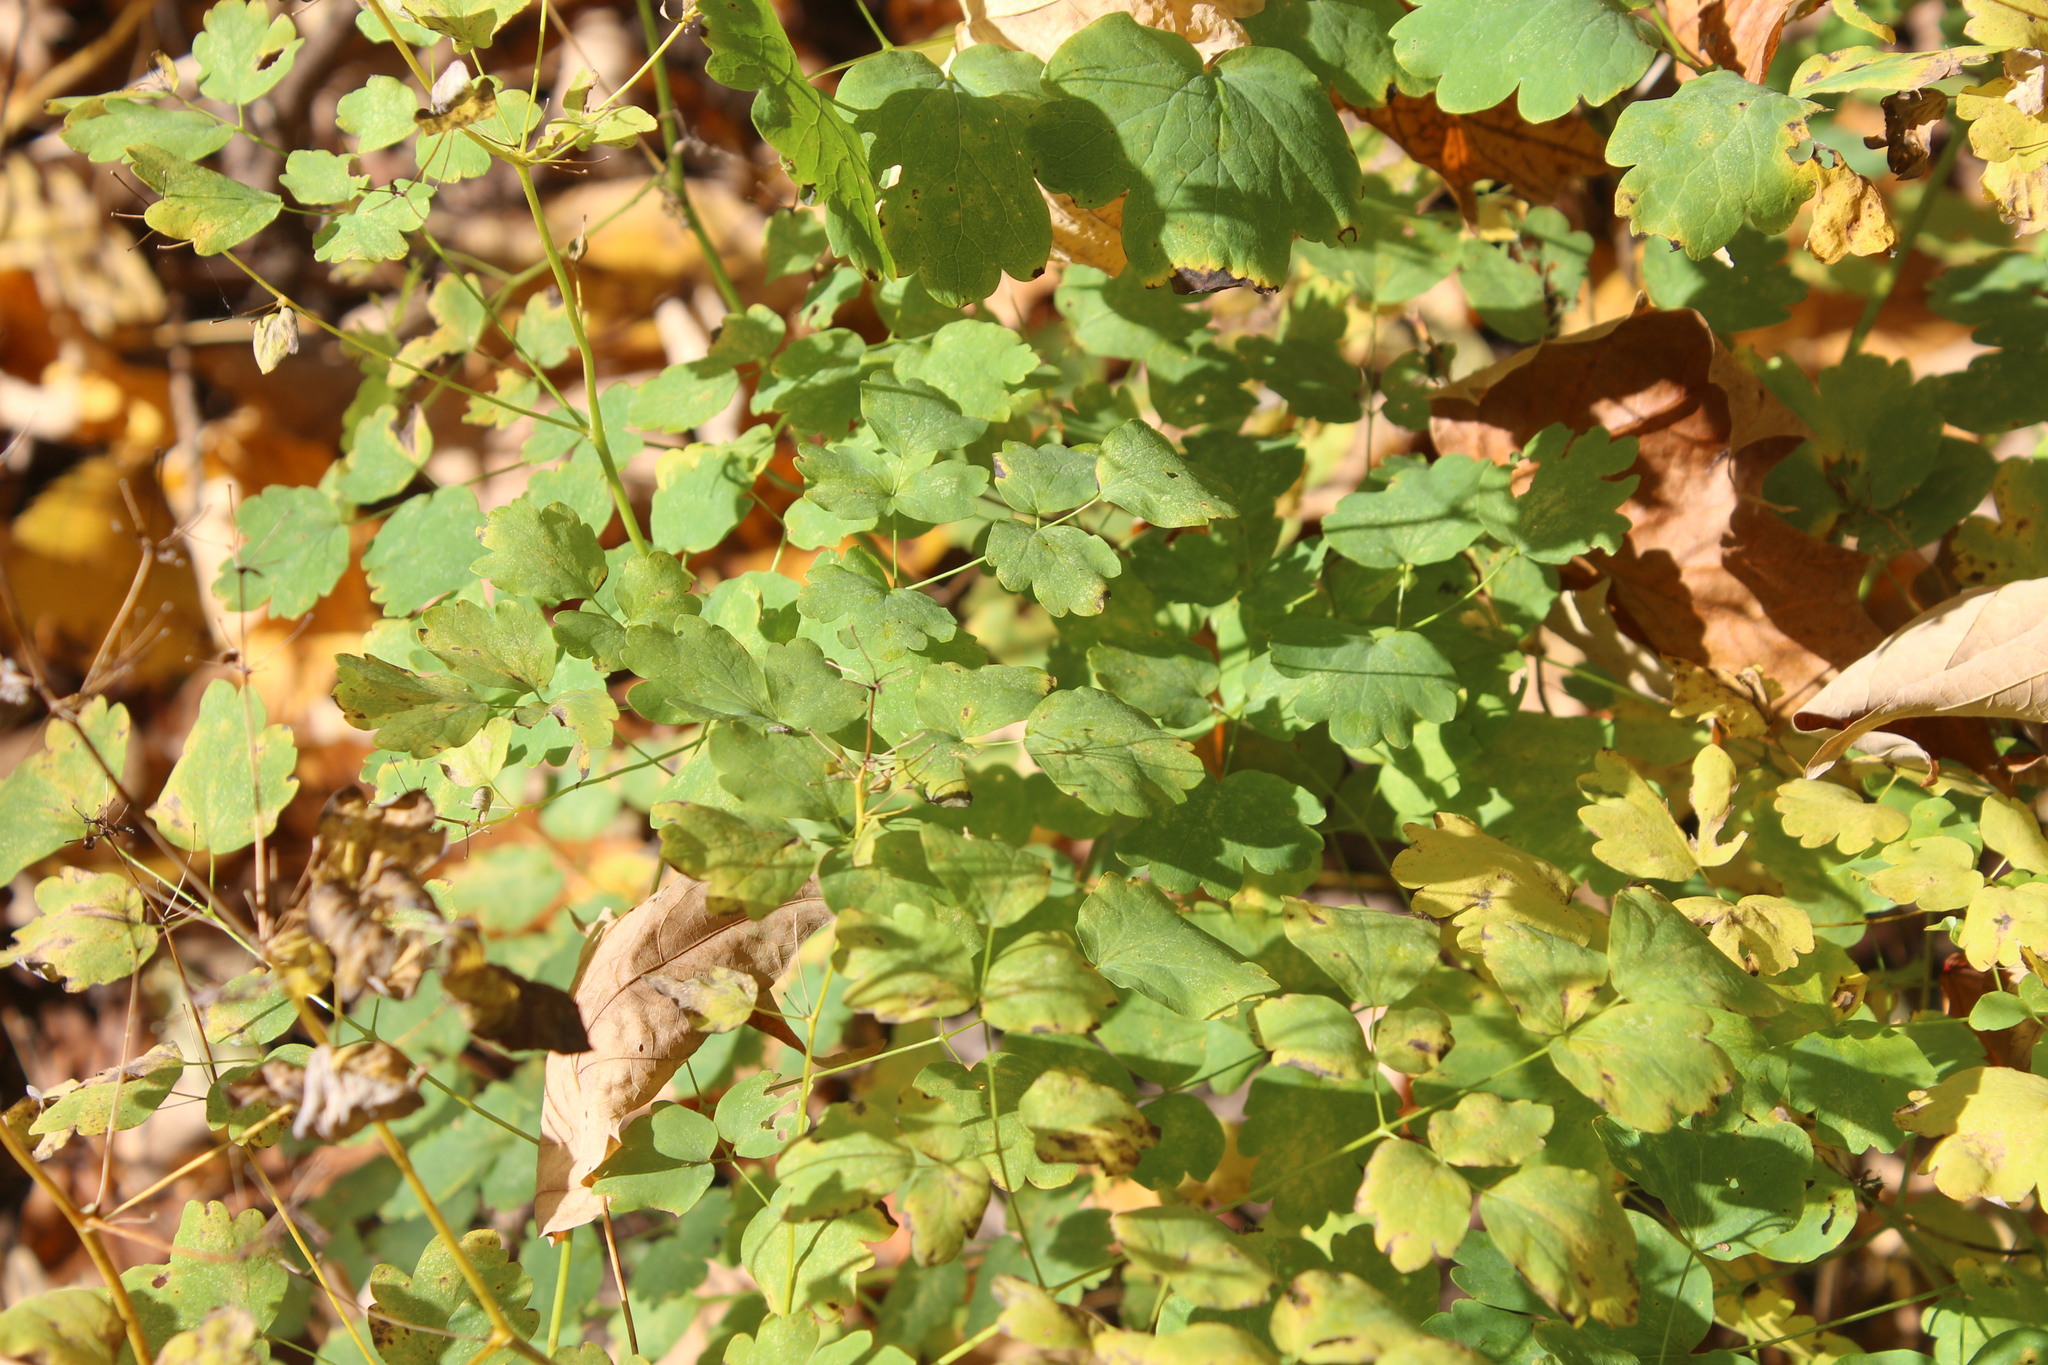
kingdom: Plantae
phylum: Tracheophyta
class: Magnoliopsida
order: Ranunculales
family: Ranunculaceae
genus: Thalictrum
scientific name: Thalictrum dioicum
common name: Early meadow-rue
